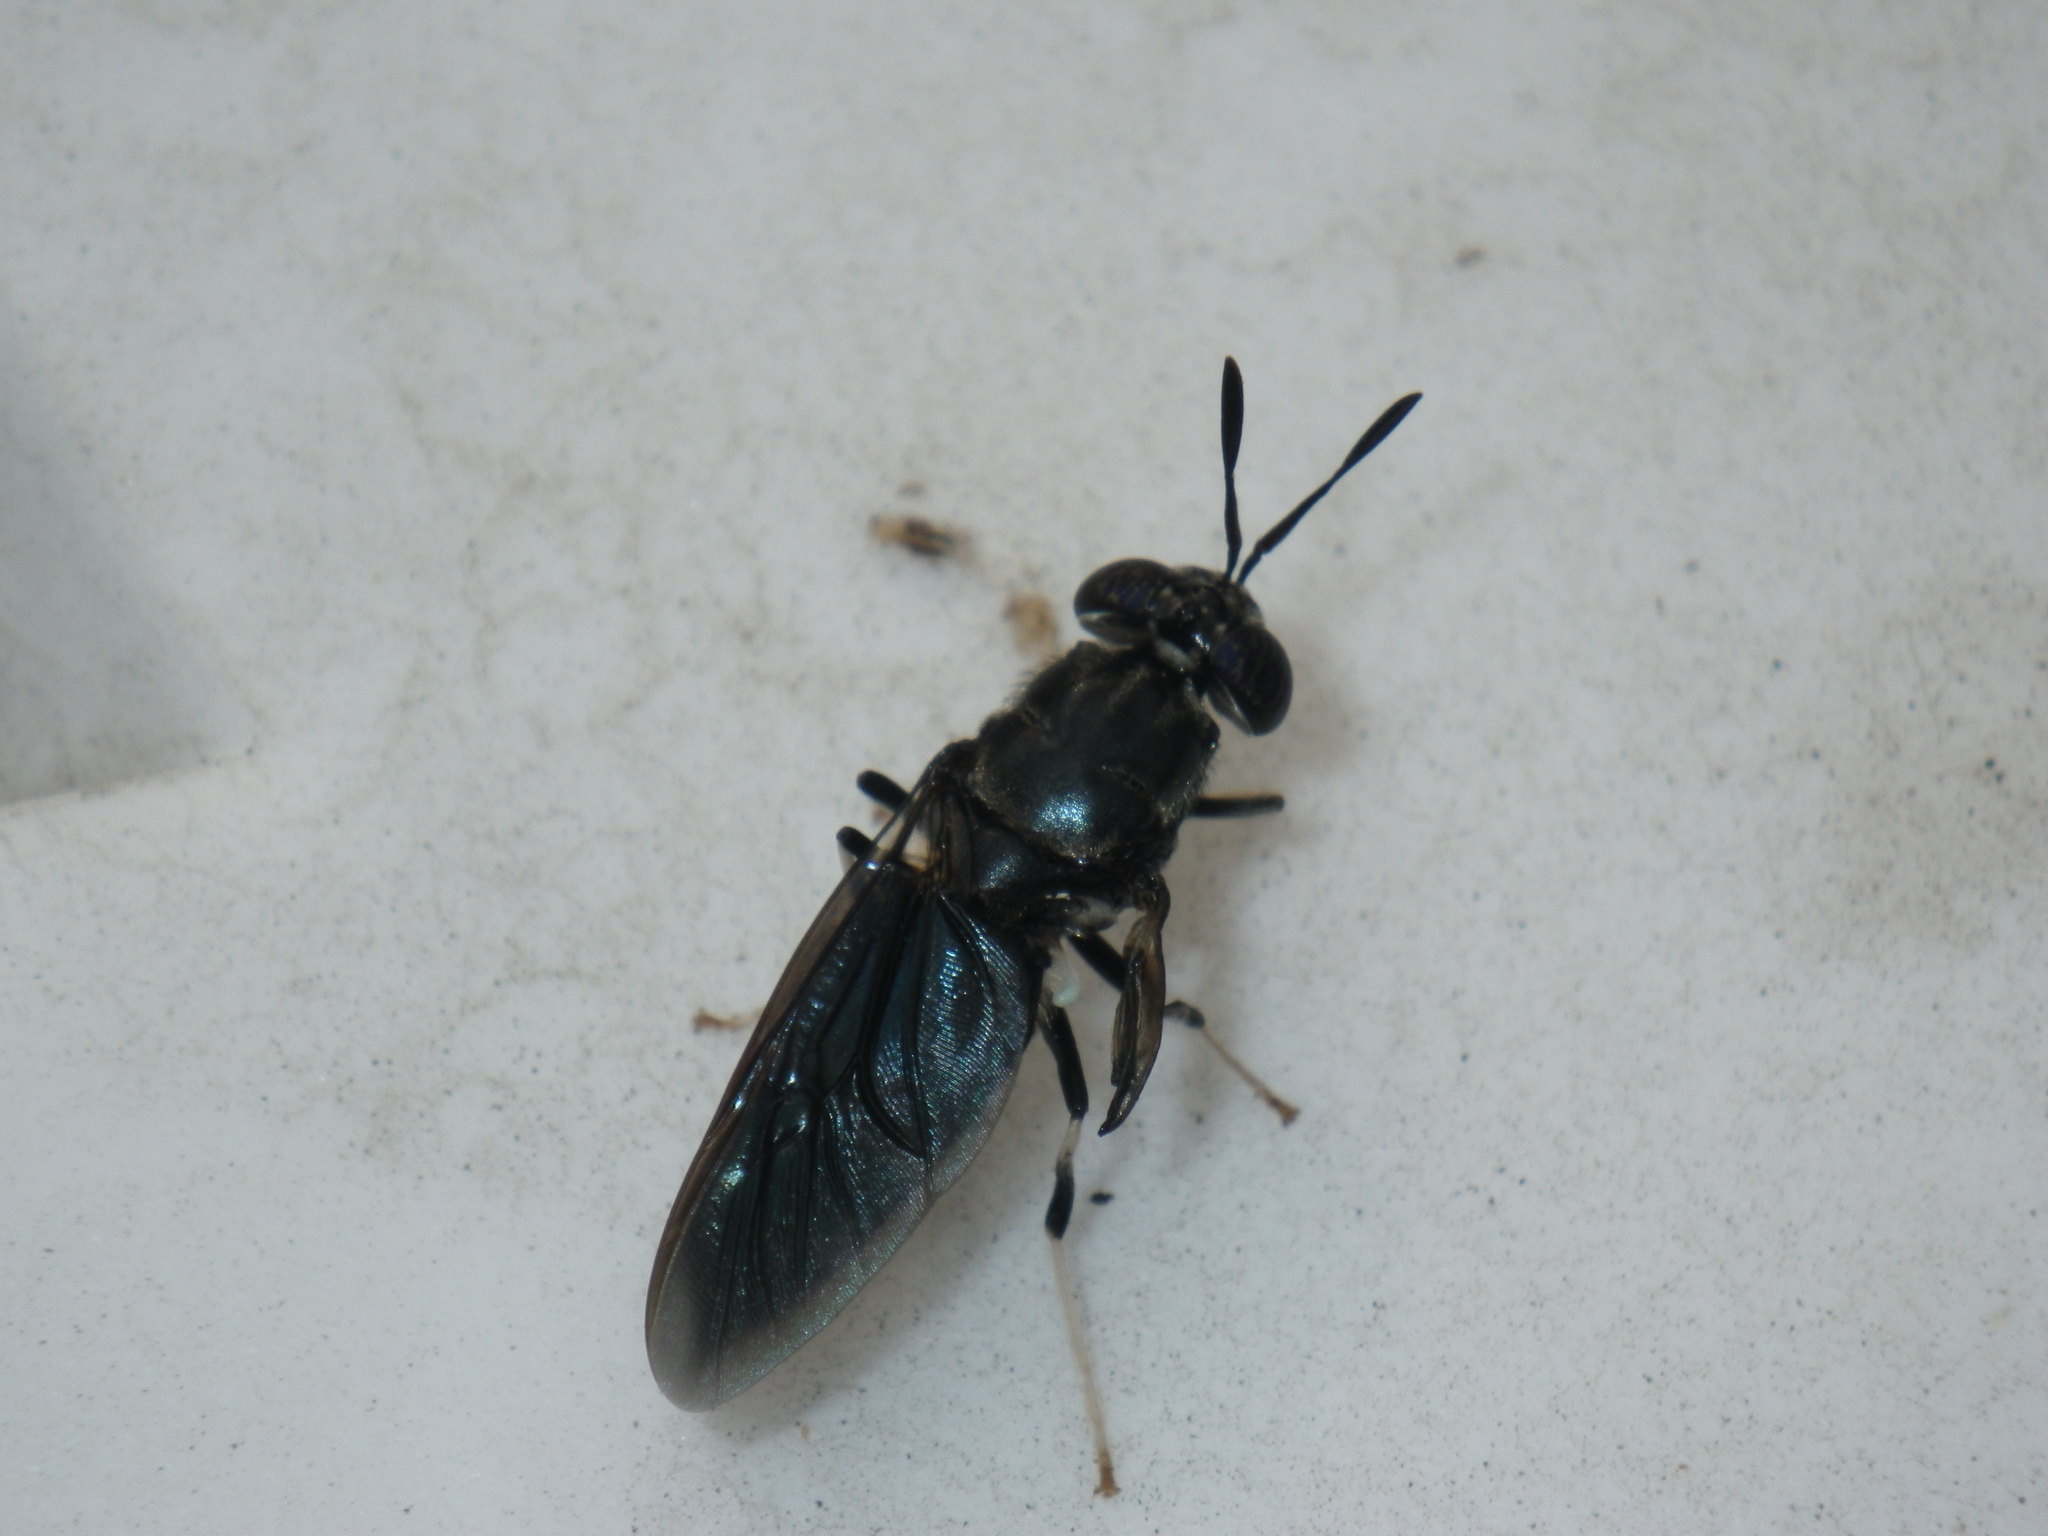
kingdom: Animalia
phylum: Arthropoda
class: Insecta
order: Diptera
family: Stratiomyidae
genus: Hermetia
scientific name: Hermetia illucens
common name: Black soldier fly
